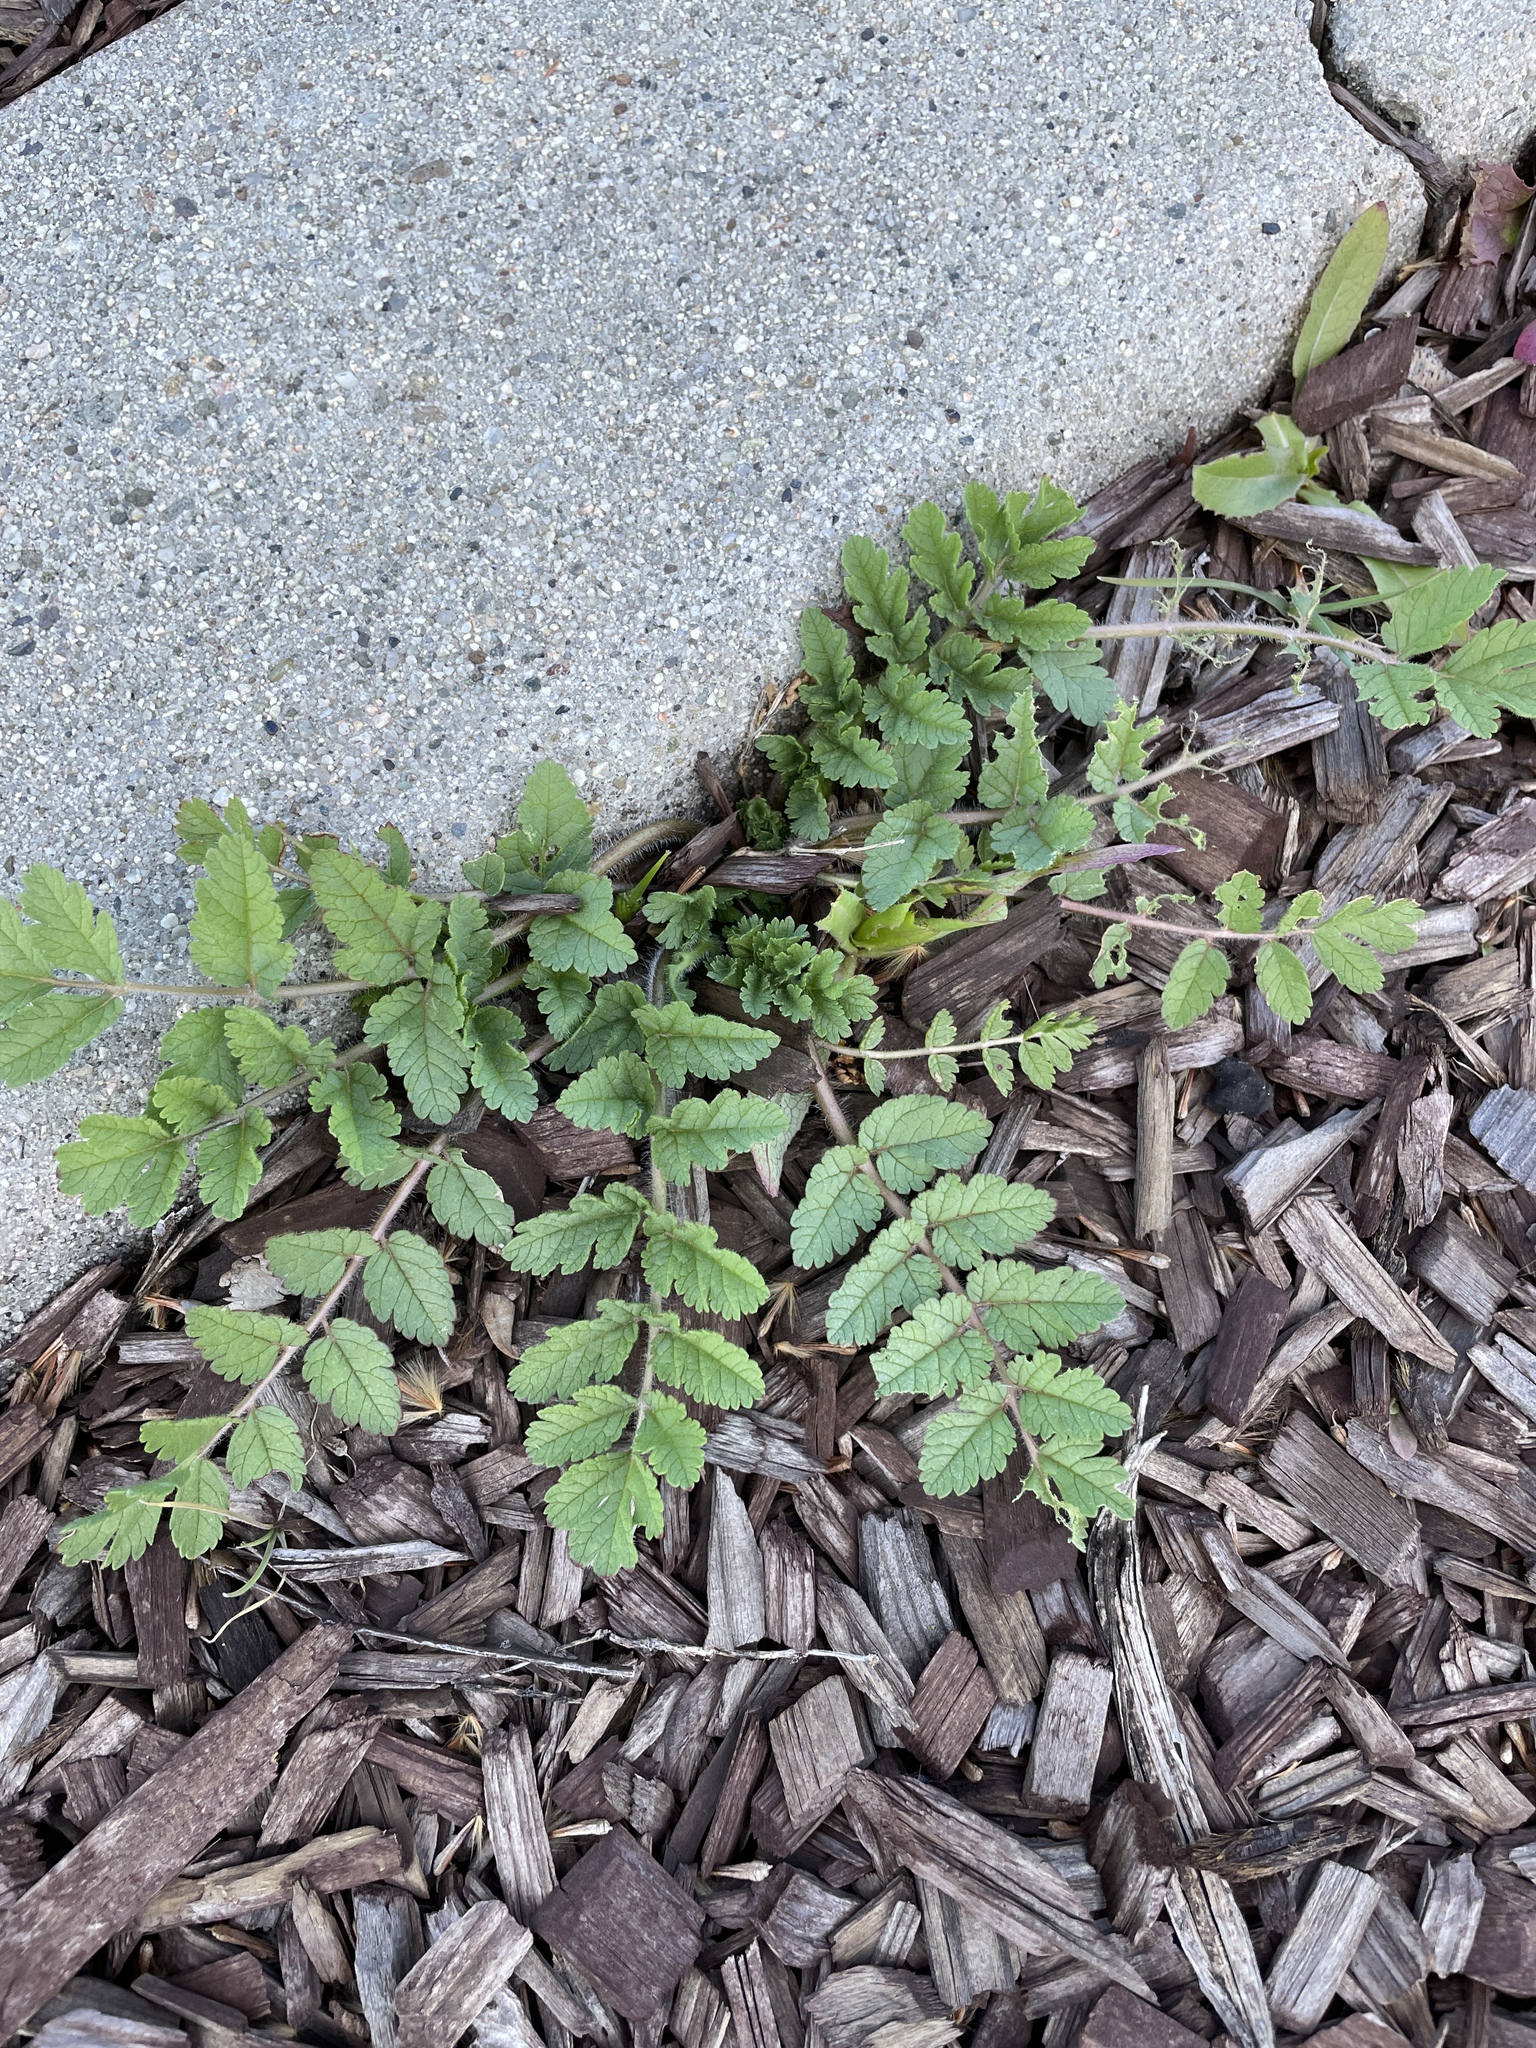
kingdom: Plantae
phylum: Tracheophyta
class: Magnoliopsida
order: Geraniales
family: Geraniaceae
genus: Erodium
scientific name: Erodium moschatum
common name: Musk stork's-bill
